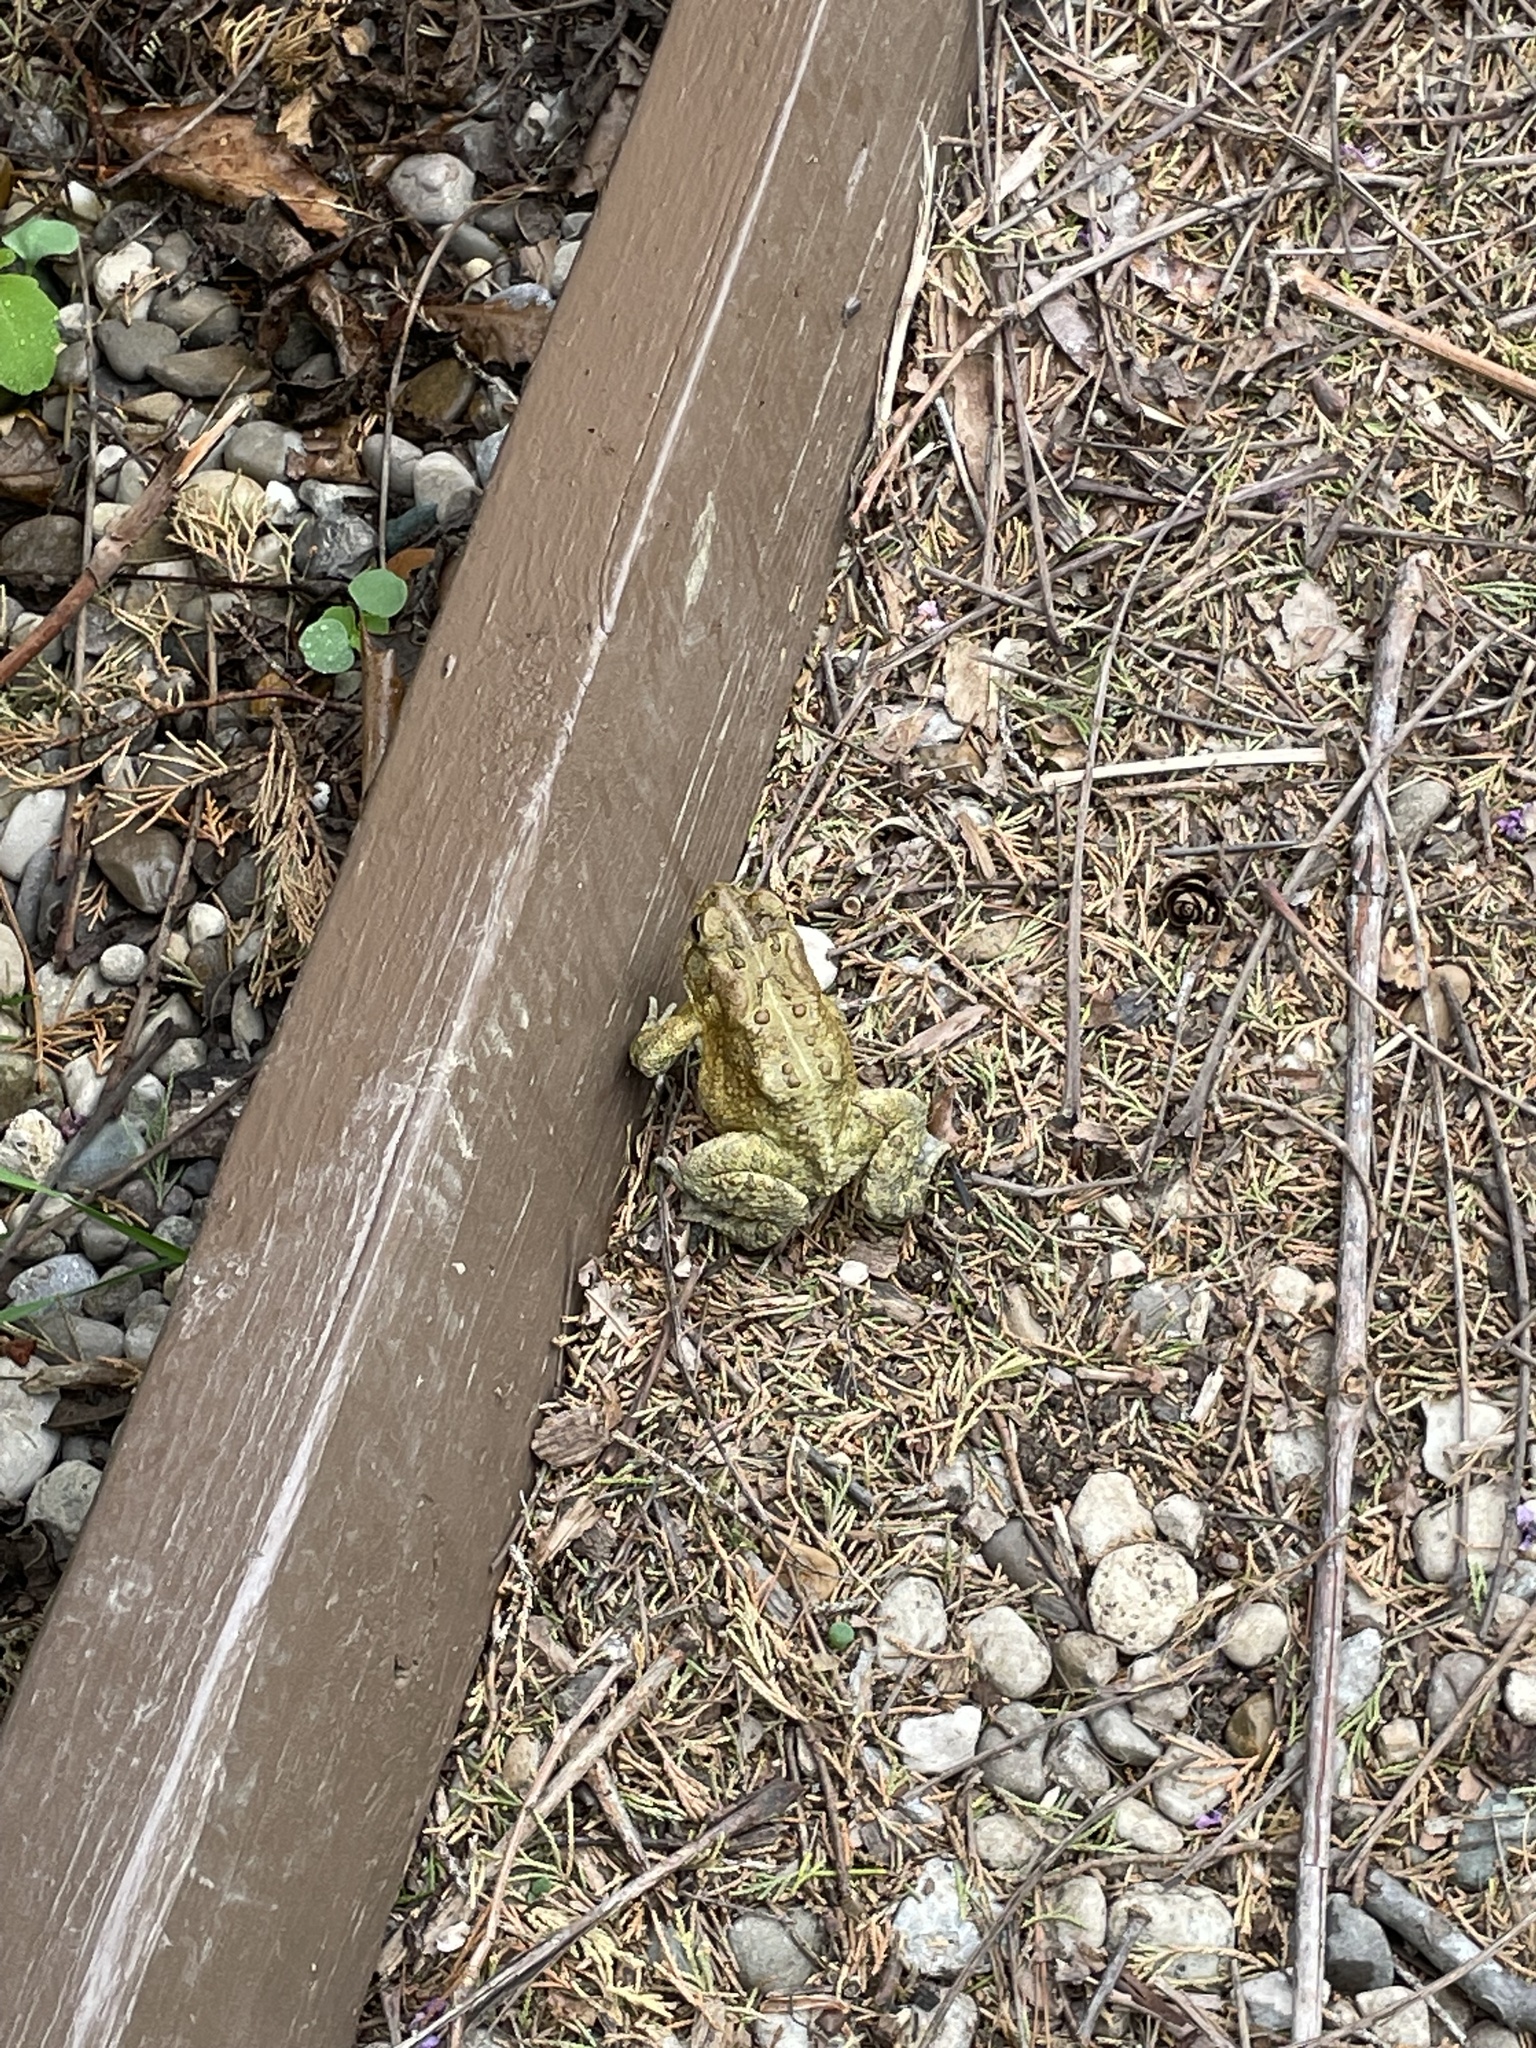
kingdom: Animalia
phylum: Chordata
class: Amphibia
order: Anura
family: Bufonidae
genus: Anaxyrus
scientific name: Anaxyrus americanus
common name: American toad
